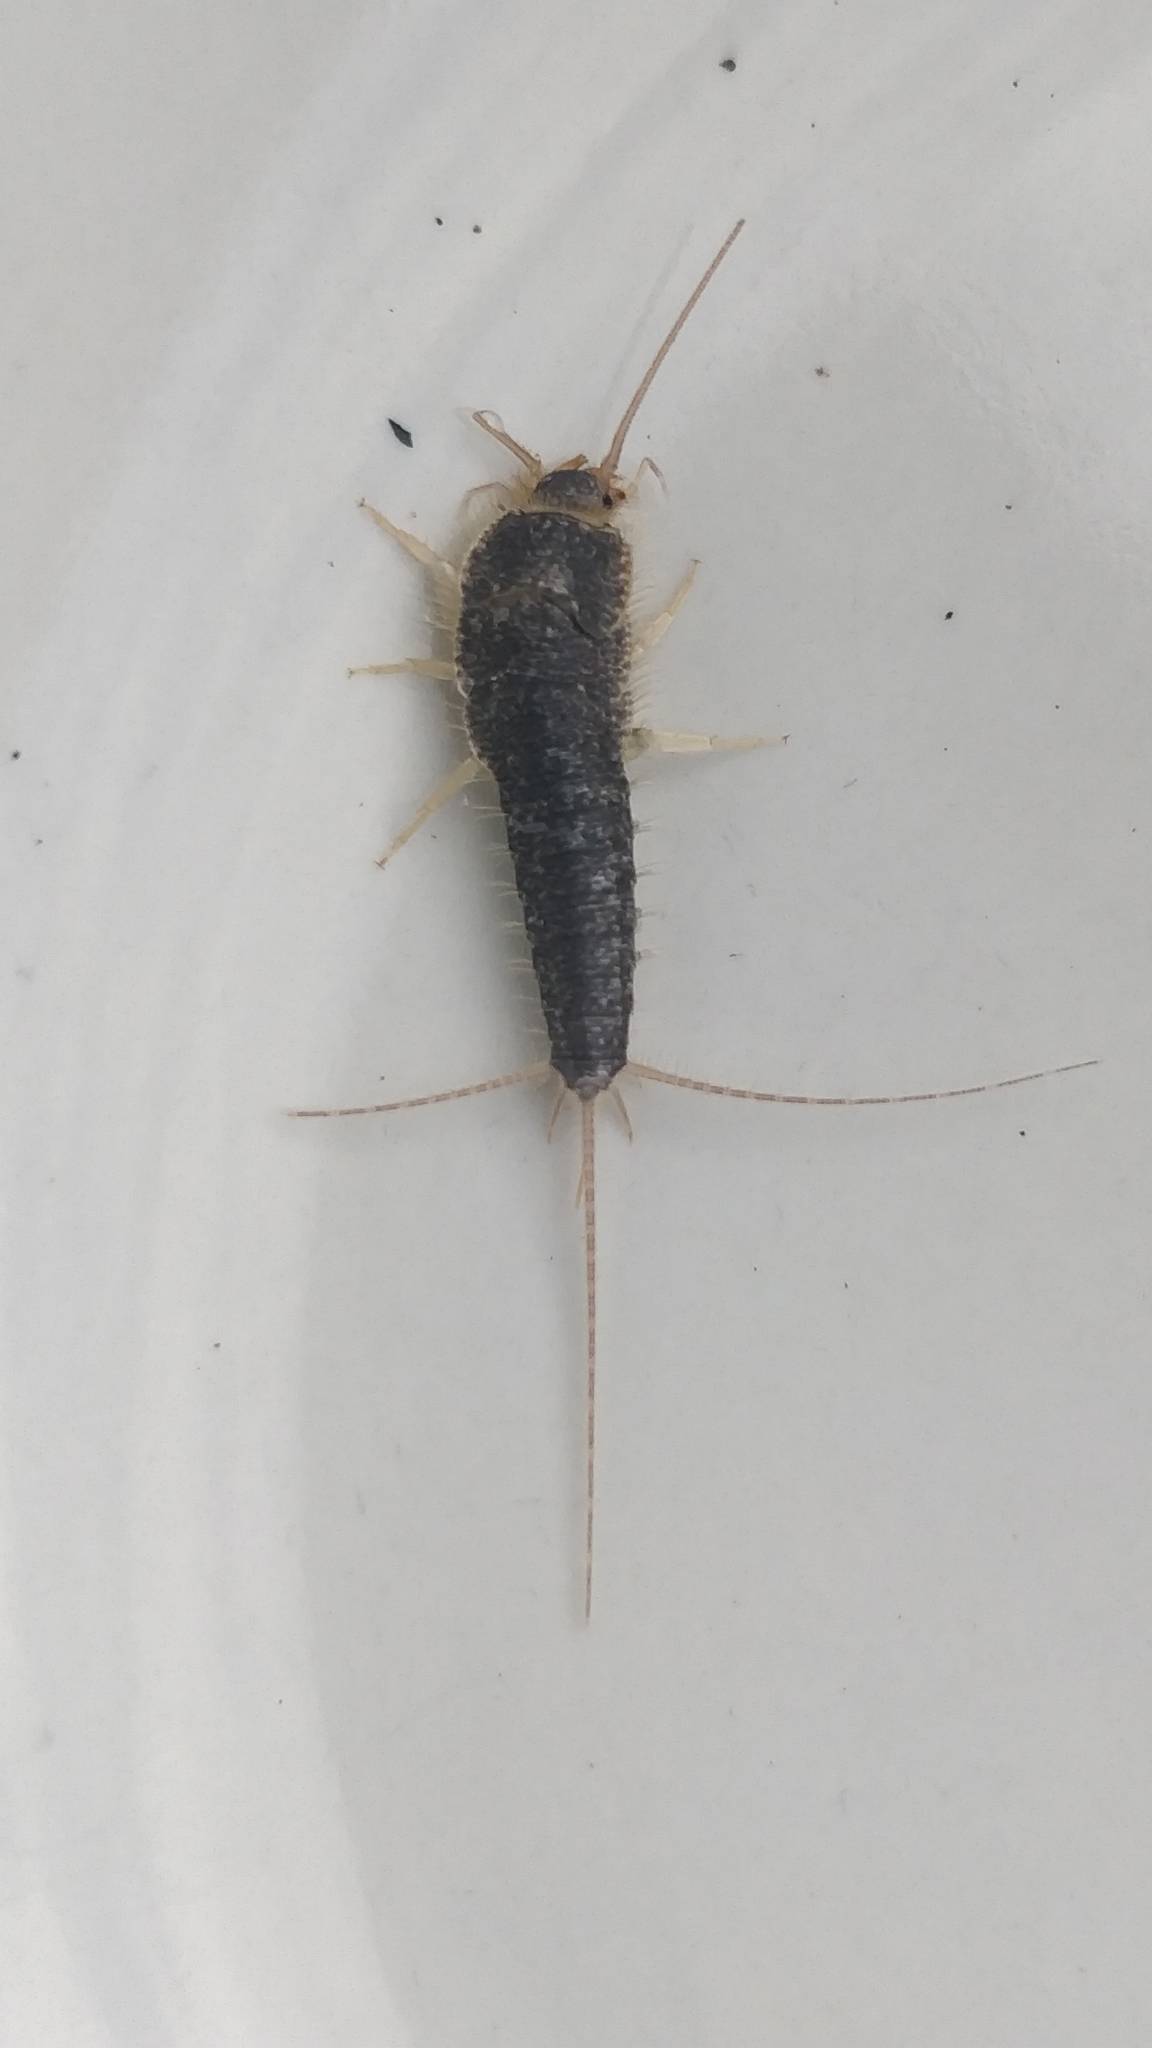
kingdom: Animalia
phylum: Arthropoda
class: Insecta
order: Zygentoma
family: Lepismatidae
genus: Ctenolepisma
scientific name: Ctenolepisma longicaudatum
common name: Silverfish
